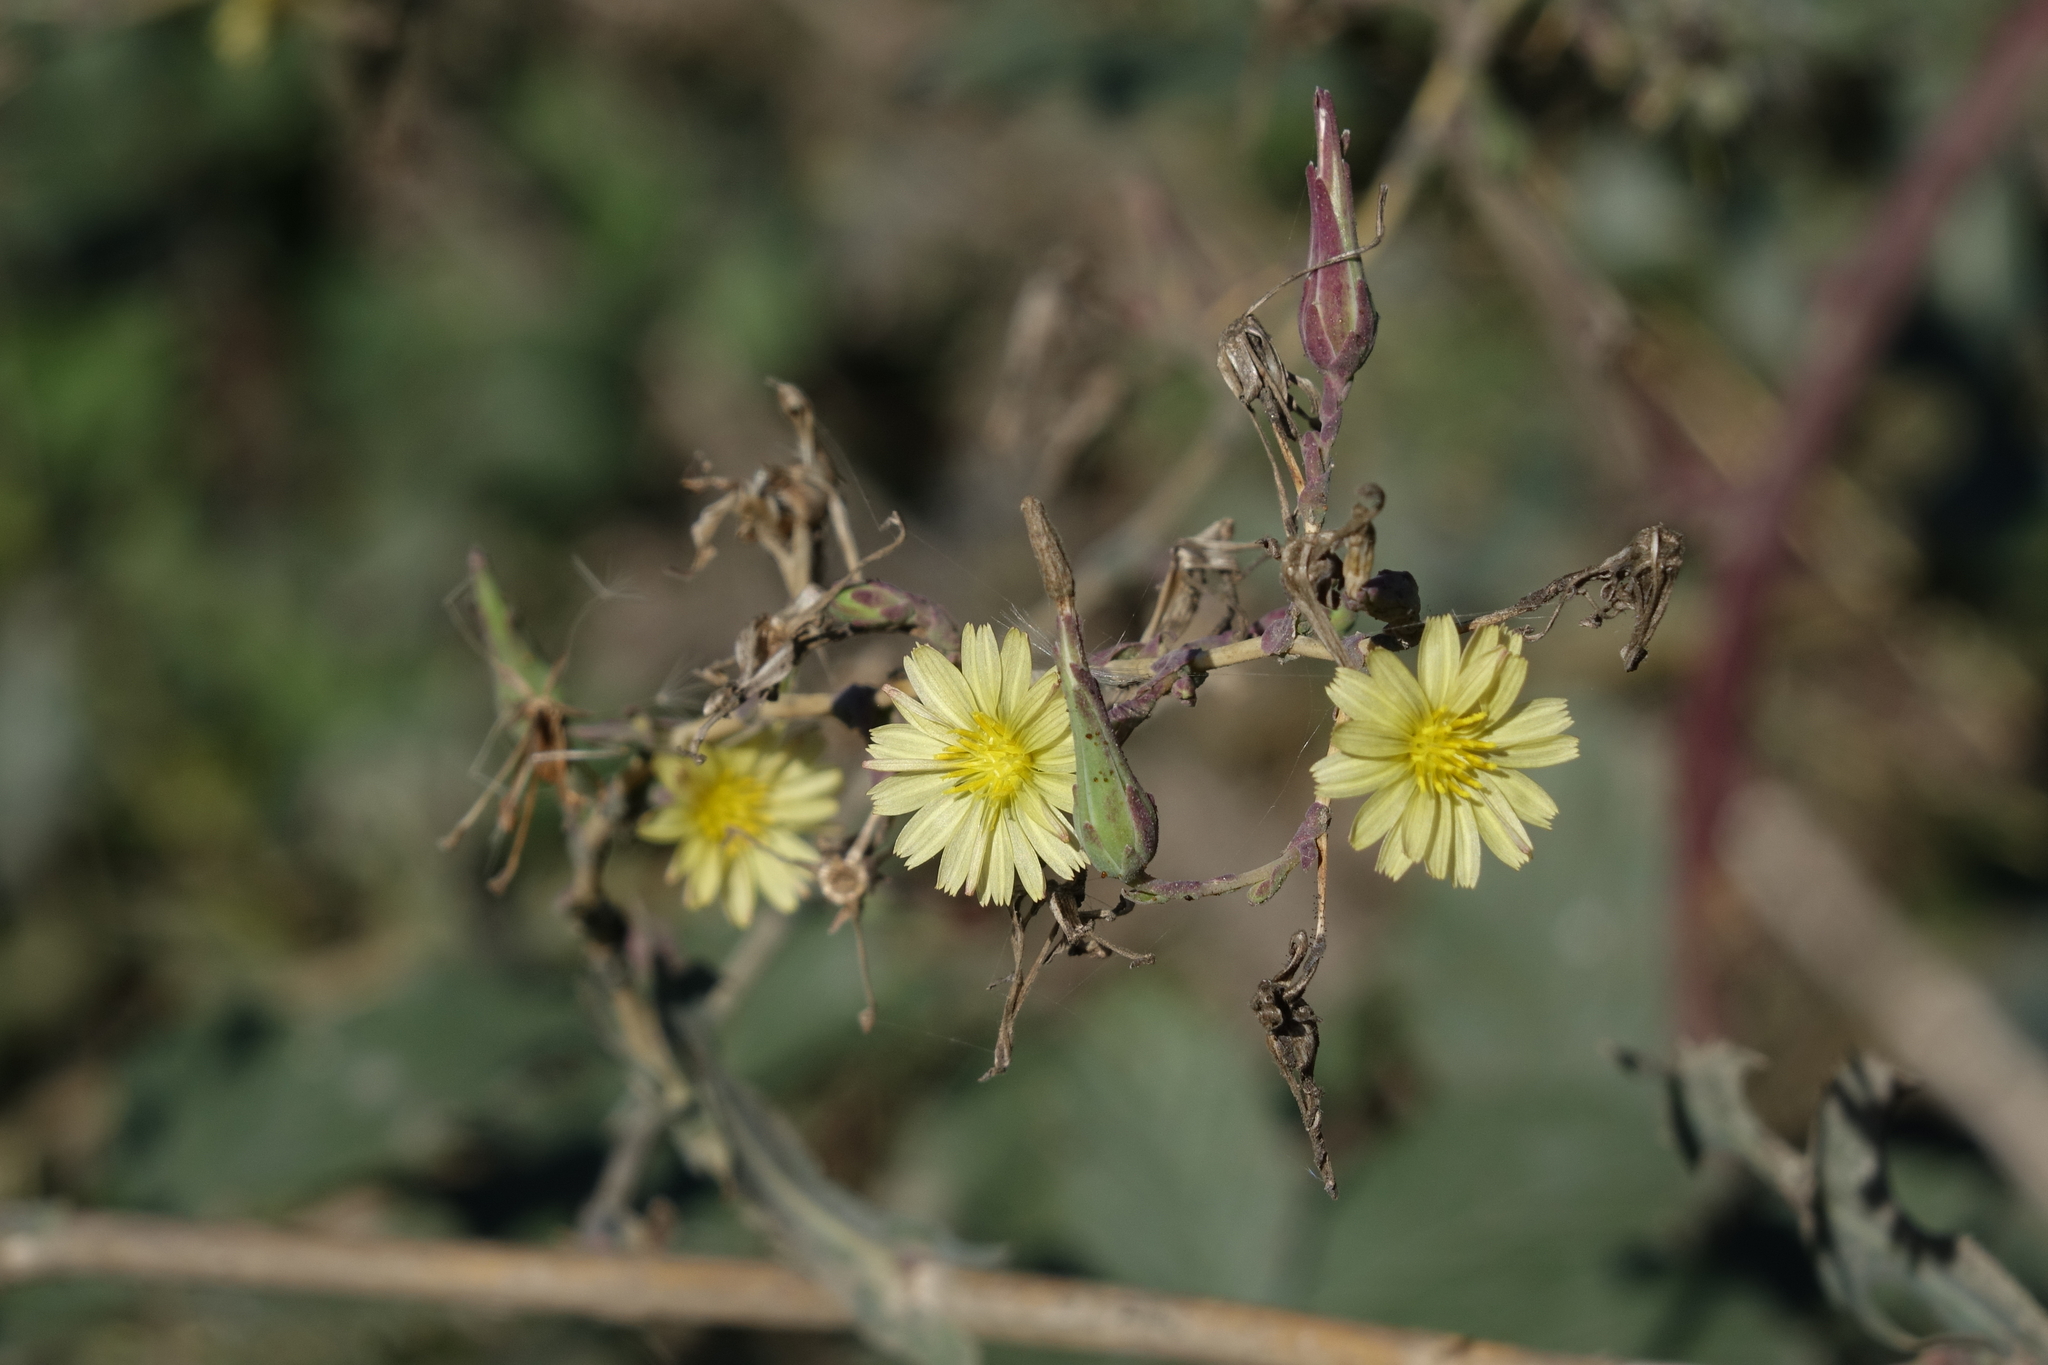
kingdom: Plantae
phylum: Tracheophyta
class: Magnoliopsida
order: Asterales
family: Asteraceae
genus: Lactuca
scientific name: Lactuca serriola
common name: Prickly lettuce
